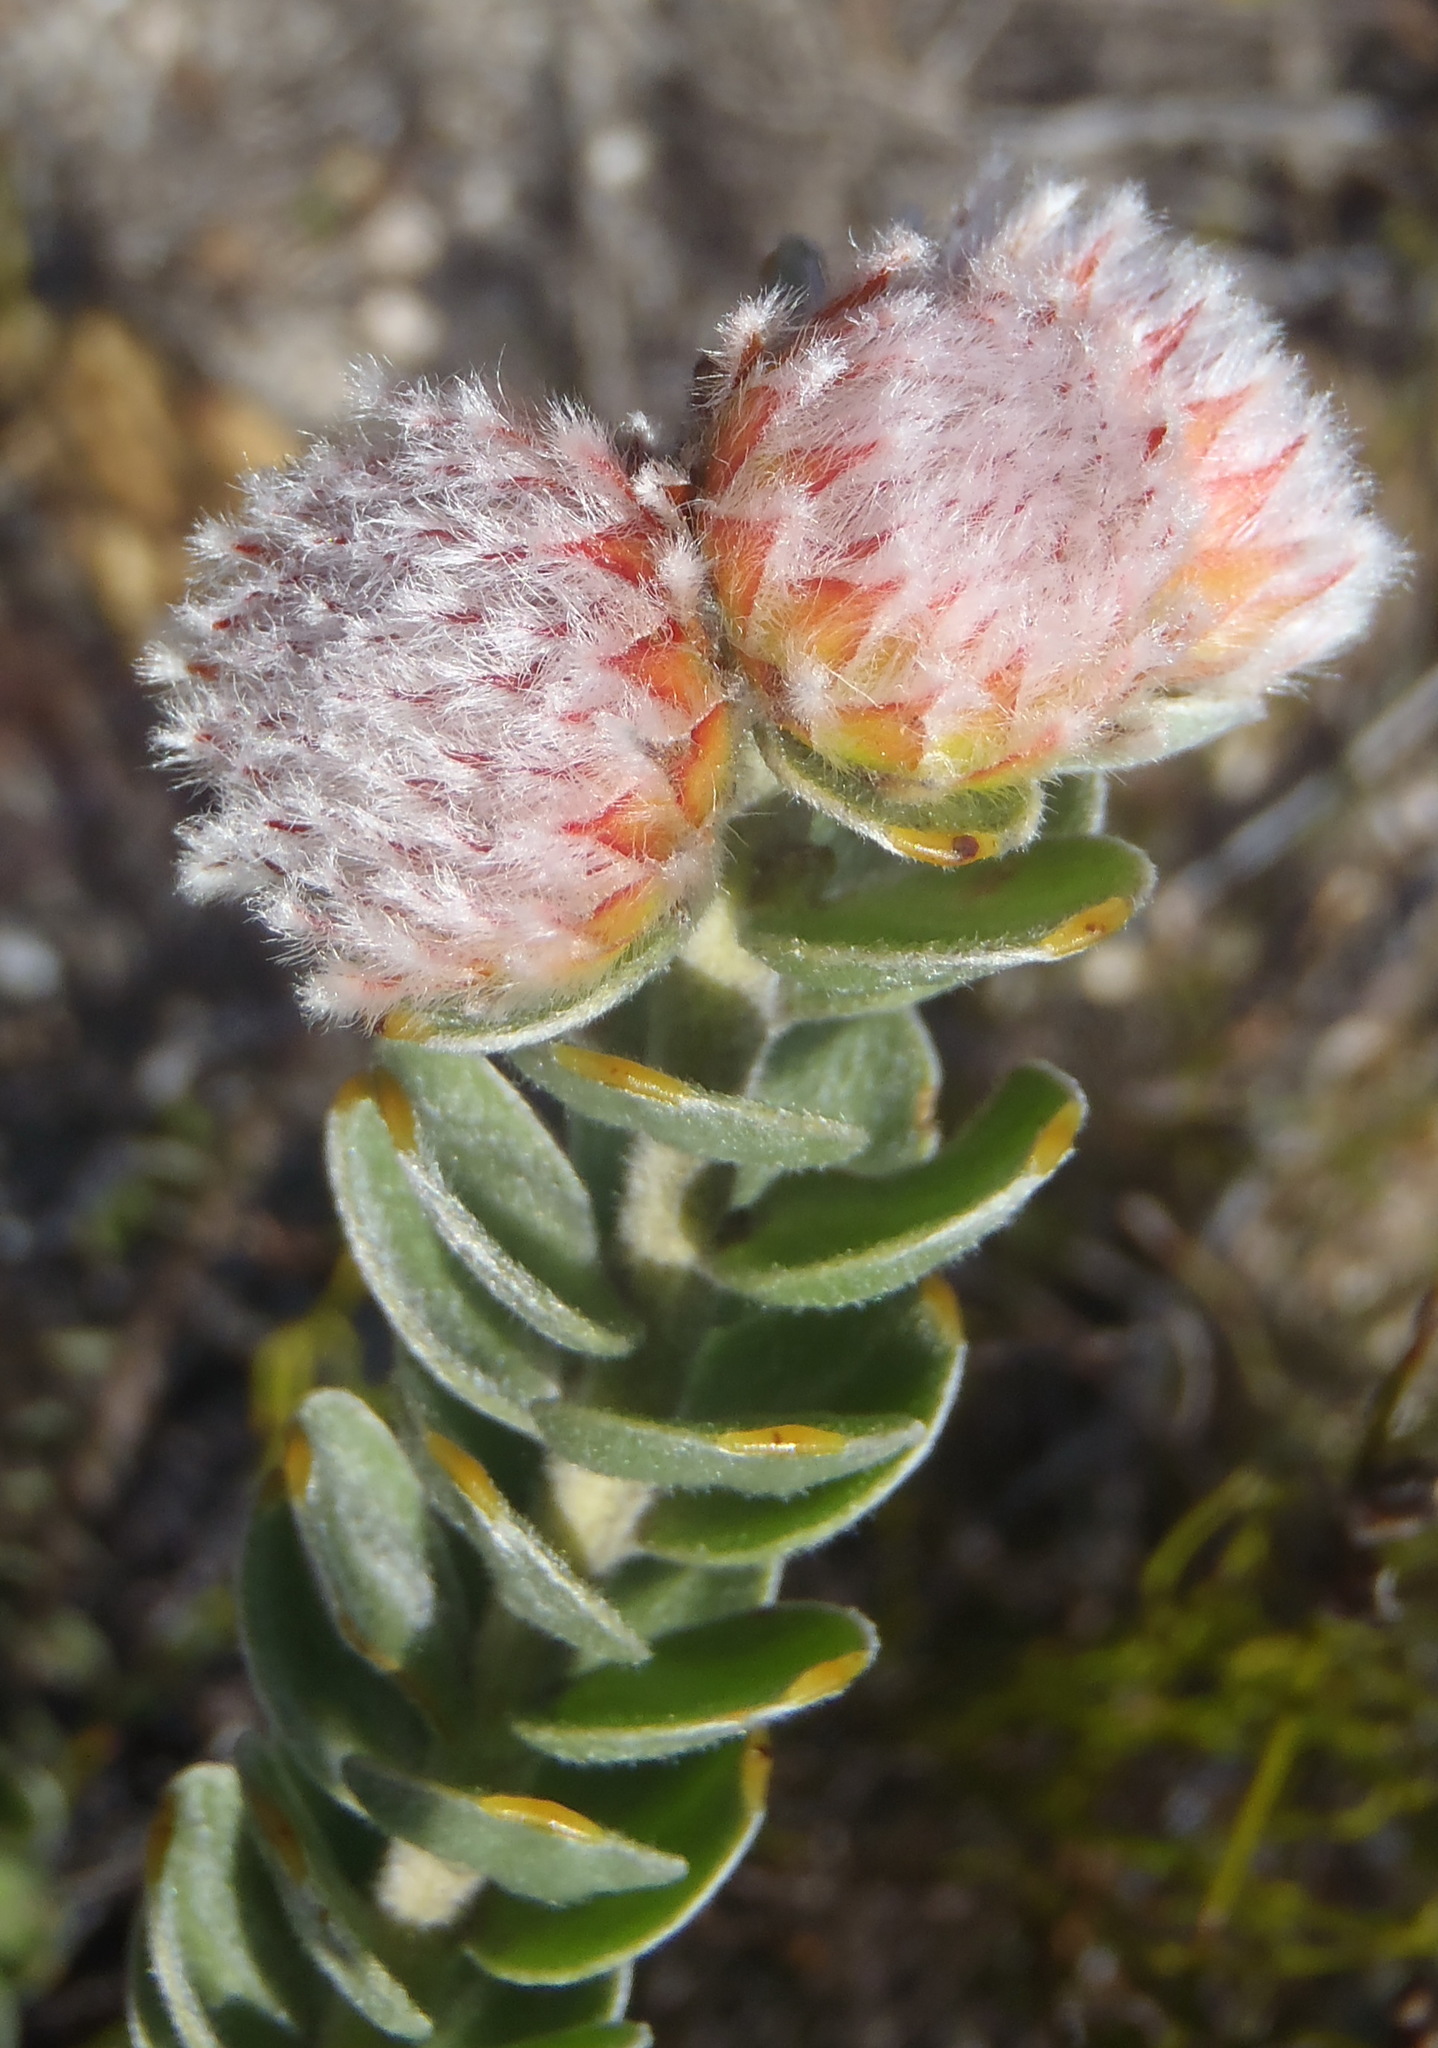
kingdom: Plantae
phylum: Tracheophyta
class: Magnoliopsida
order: Proteales
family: Proteaceae
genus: Leucospermum
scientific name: Leucospermum truncatulum
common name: Oval-leaf pincushion
